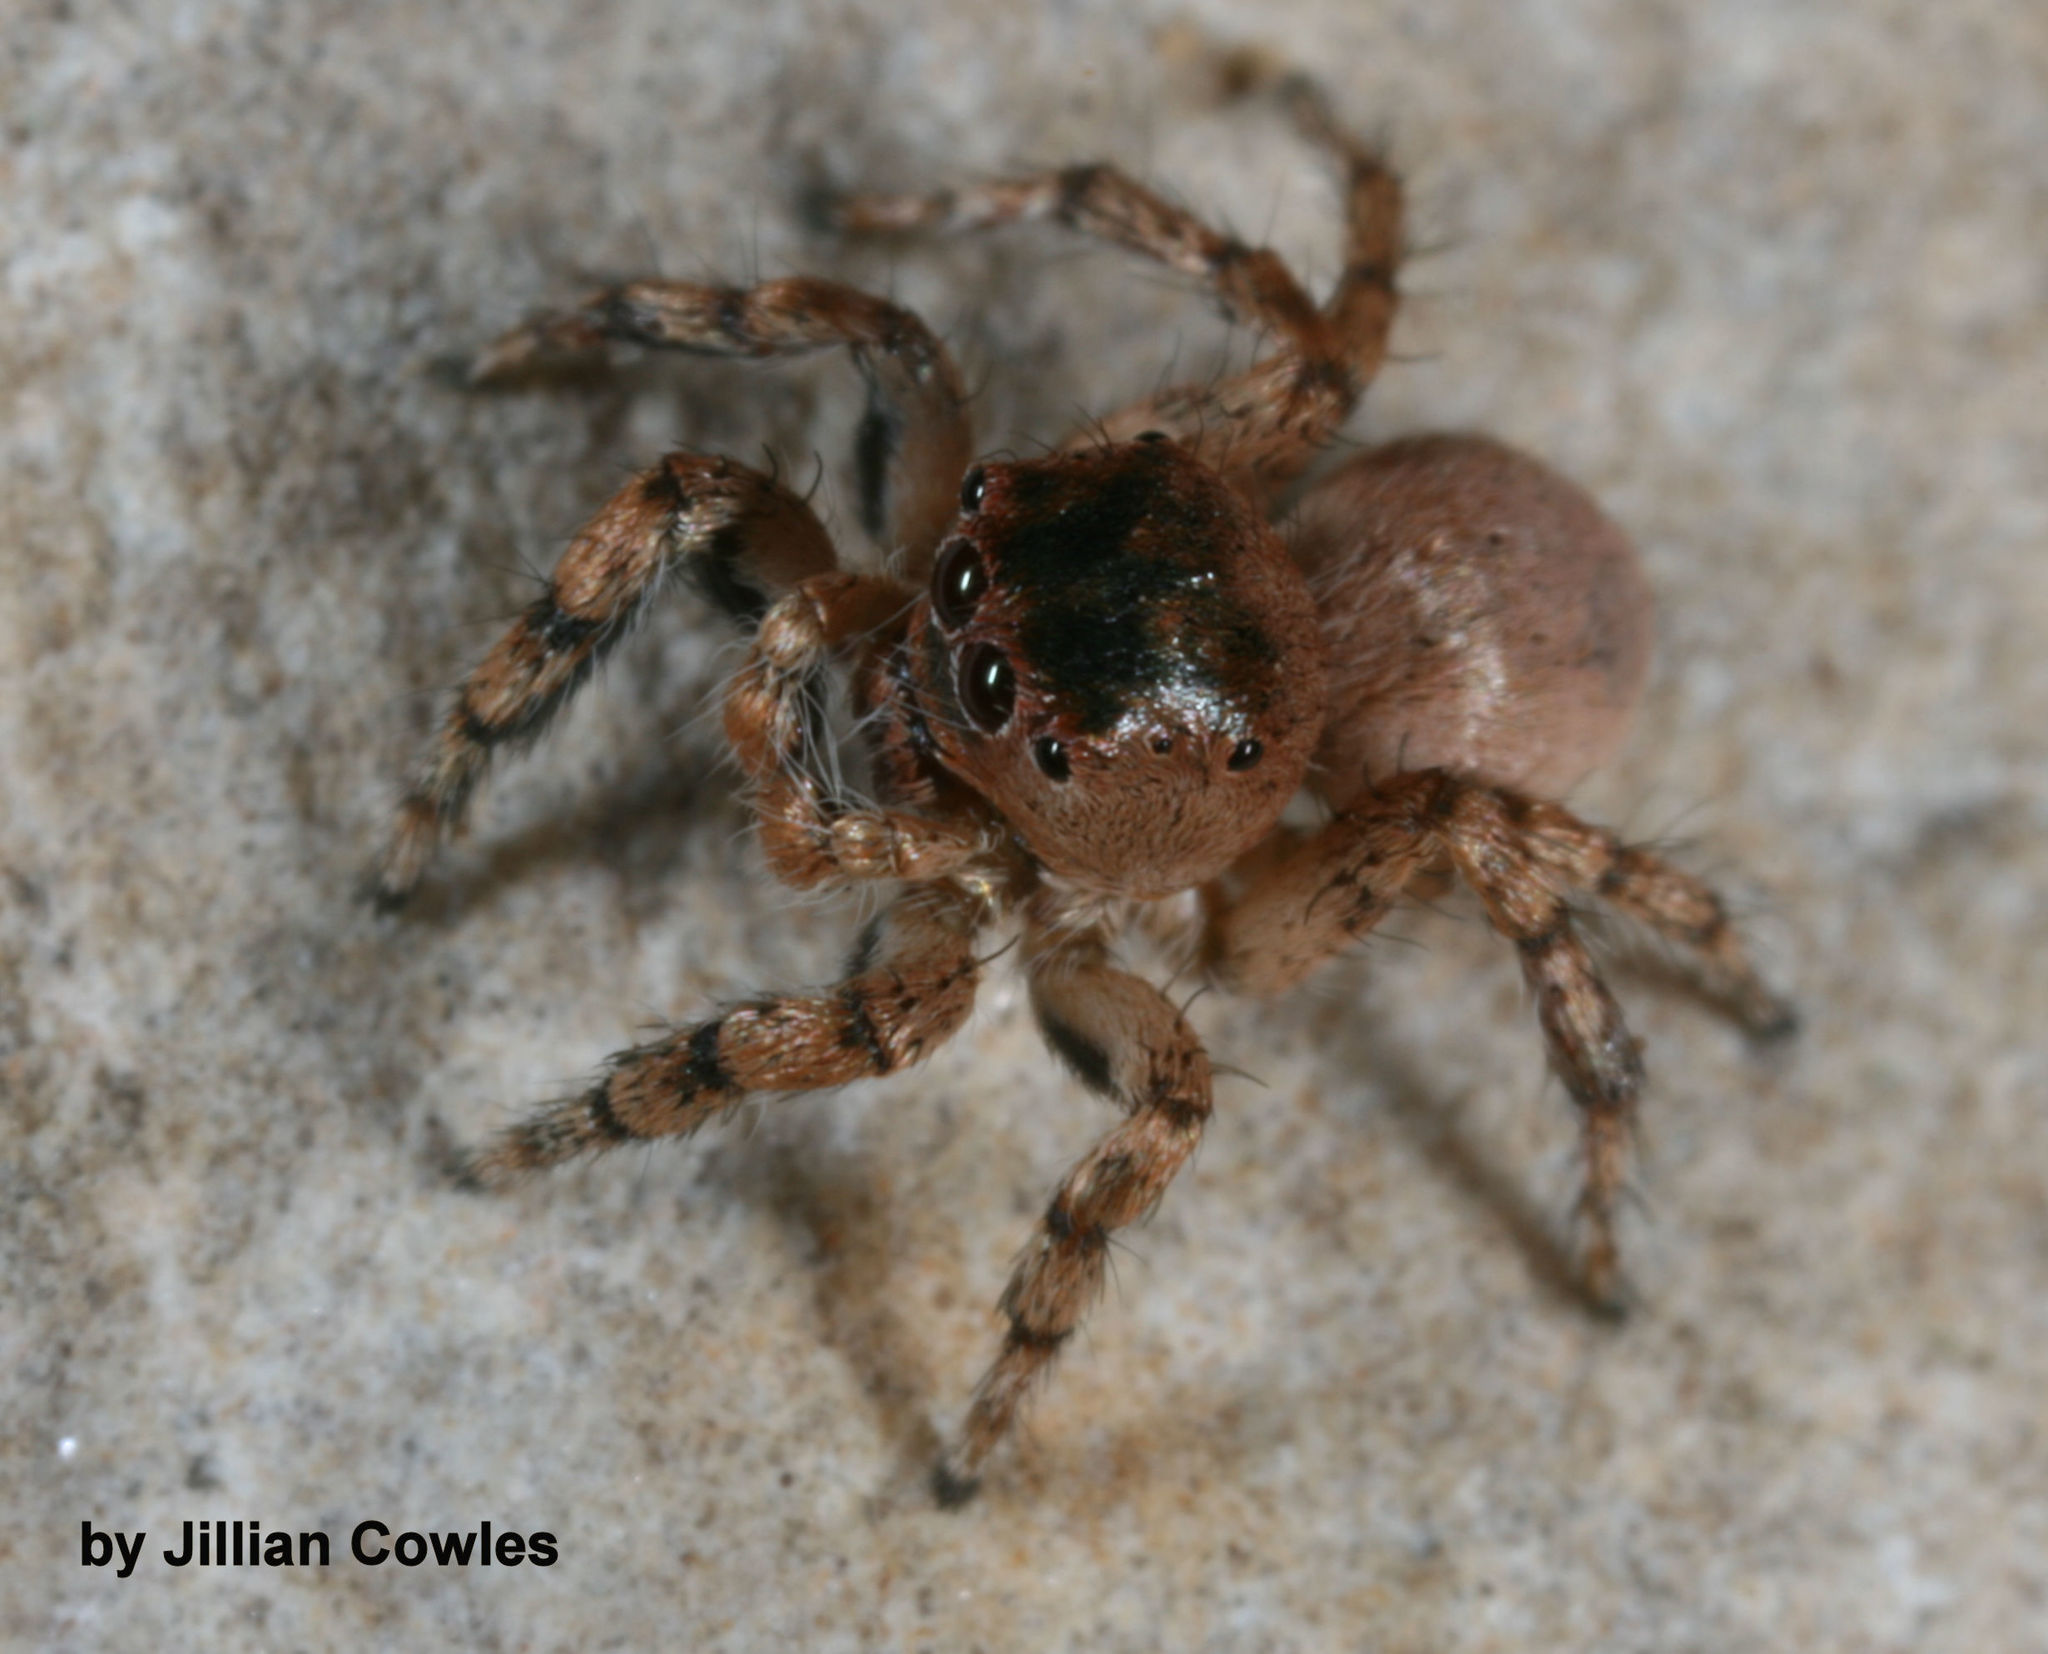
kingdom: Animalia
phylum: Arthropoda
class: Arachnida
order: Araneae
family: Salticidae
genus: Habronattus
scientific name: Habronattus ustulatus
